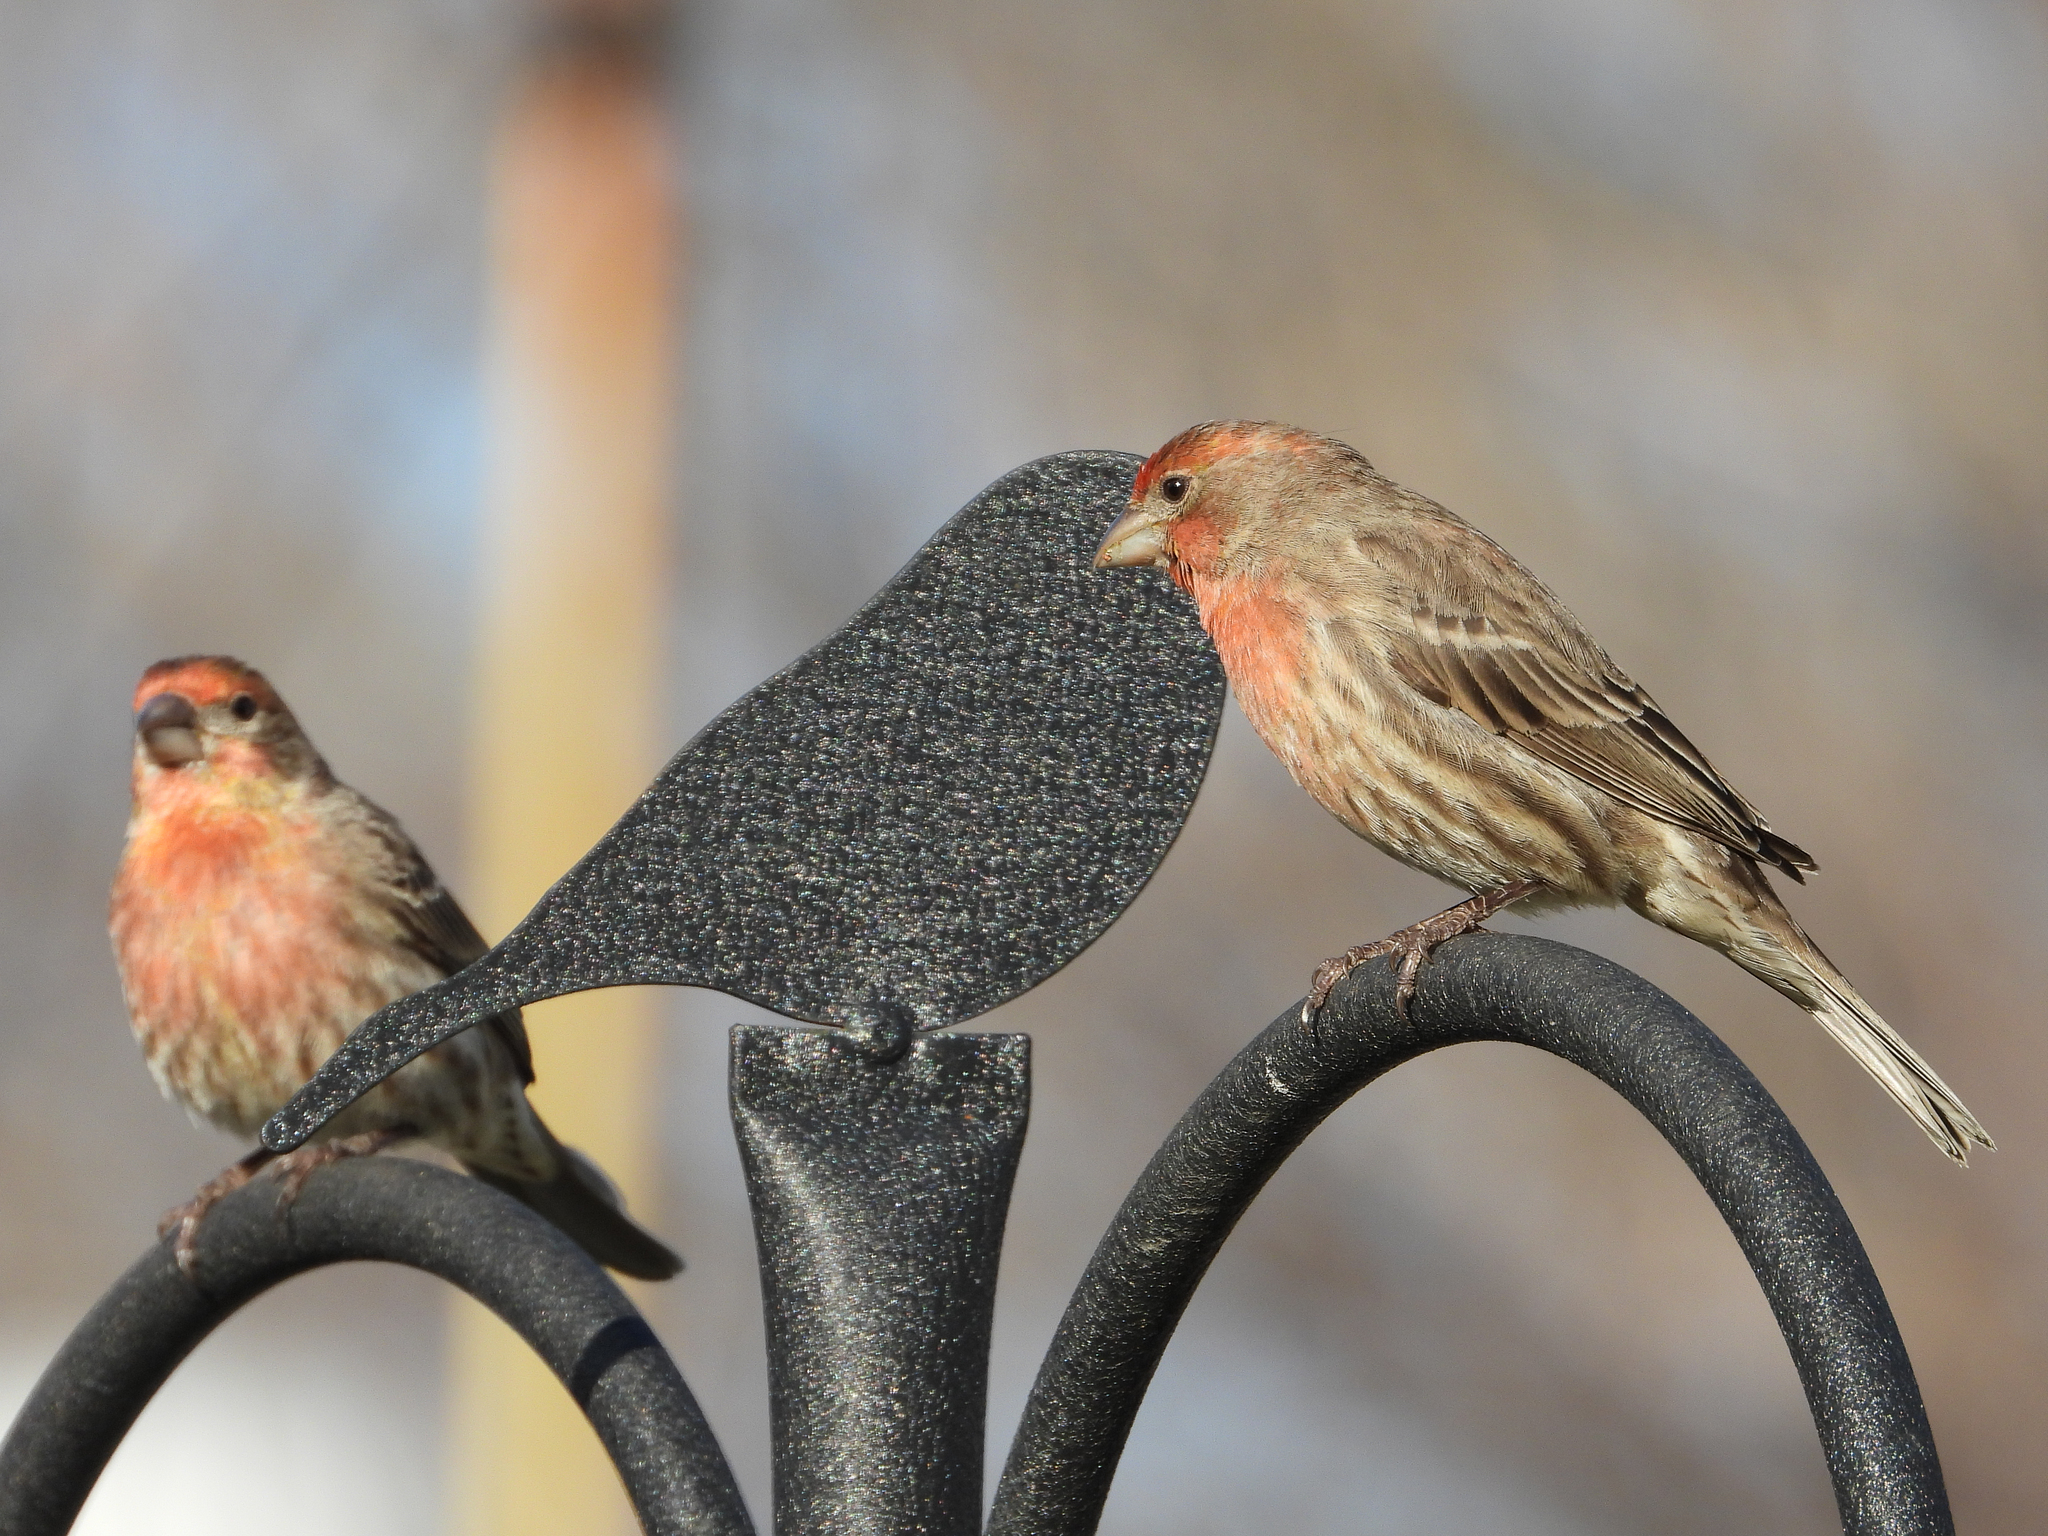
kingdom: Animalia
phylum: Chordata
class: Aves
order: Passeriformes
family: Fringillidae
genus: Haemorhous
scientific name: Haemorhous mexicanus
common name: House finch
